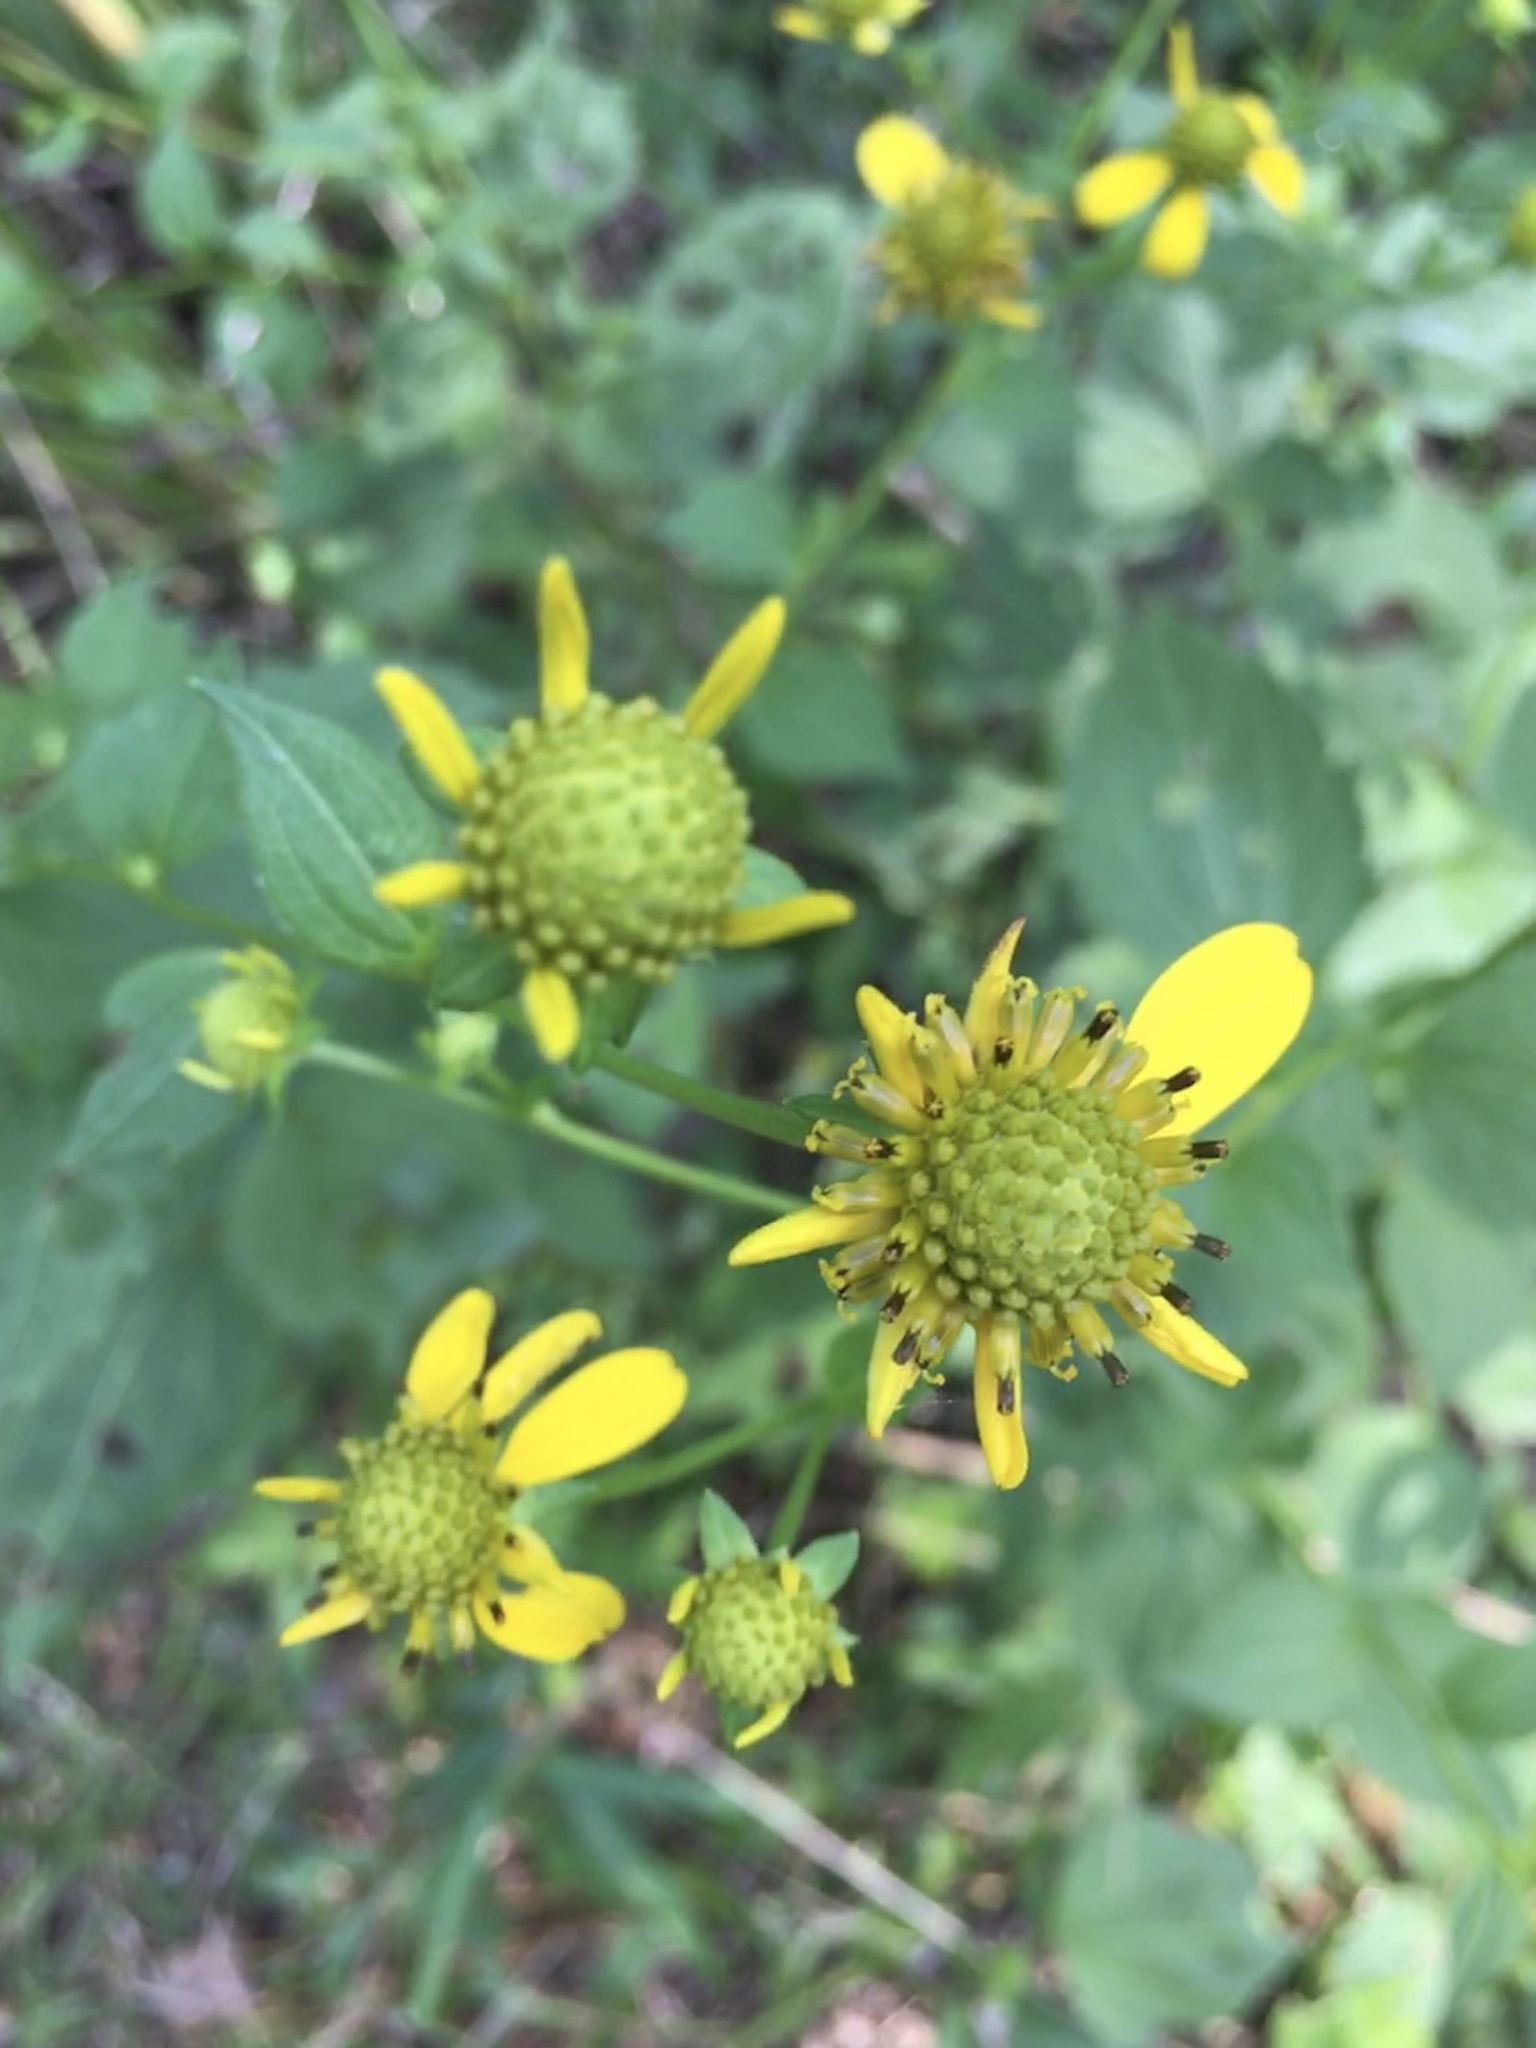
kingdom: Plantae
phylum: Tracheophyta
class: Magnoliopsida
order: Asterales
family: Asteraceae
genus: Rudbeckia
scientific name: Rudbeckia laciniata
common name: Coneflower
